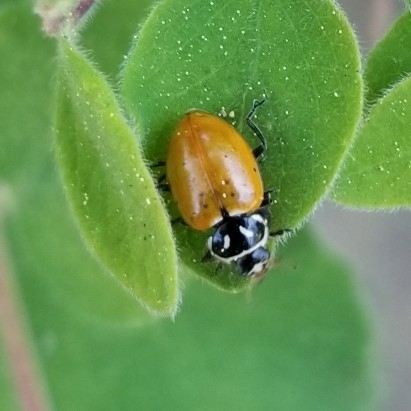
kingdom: Animalia
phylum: Arthropoda
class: Insecta
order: Coleoptera
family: Coccinellidae
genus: Hippodamia
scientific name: Hippodamia convergens
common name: Convergent lady beetle
